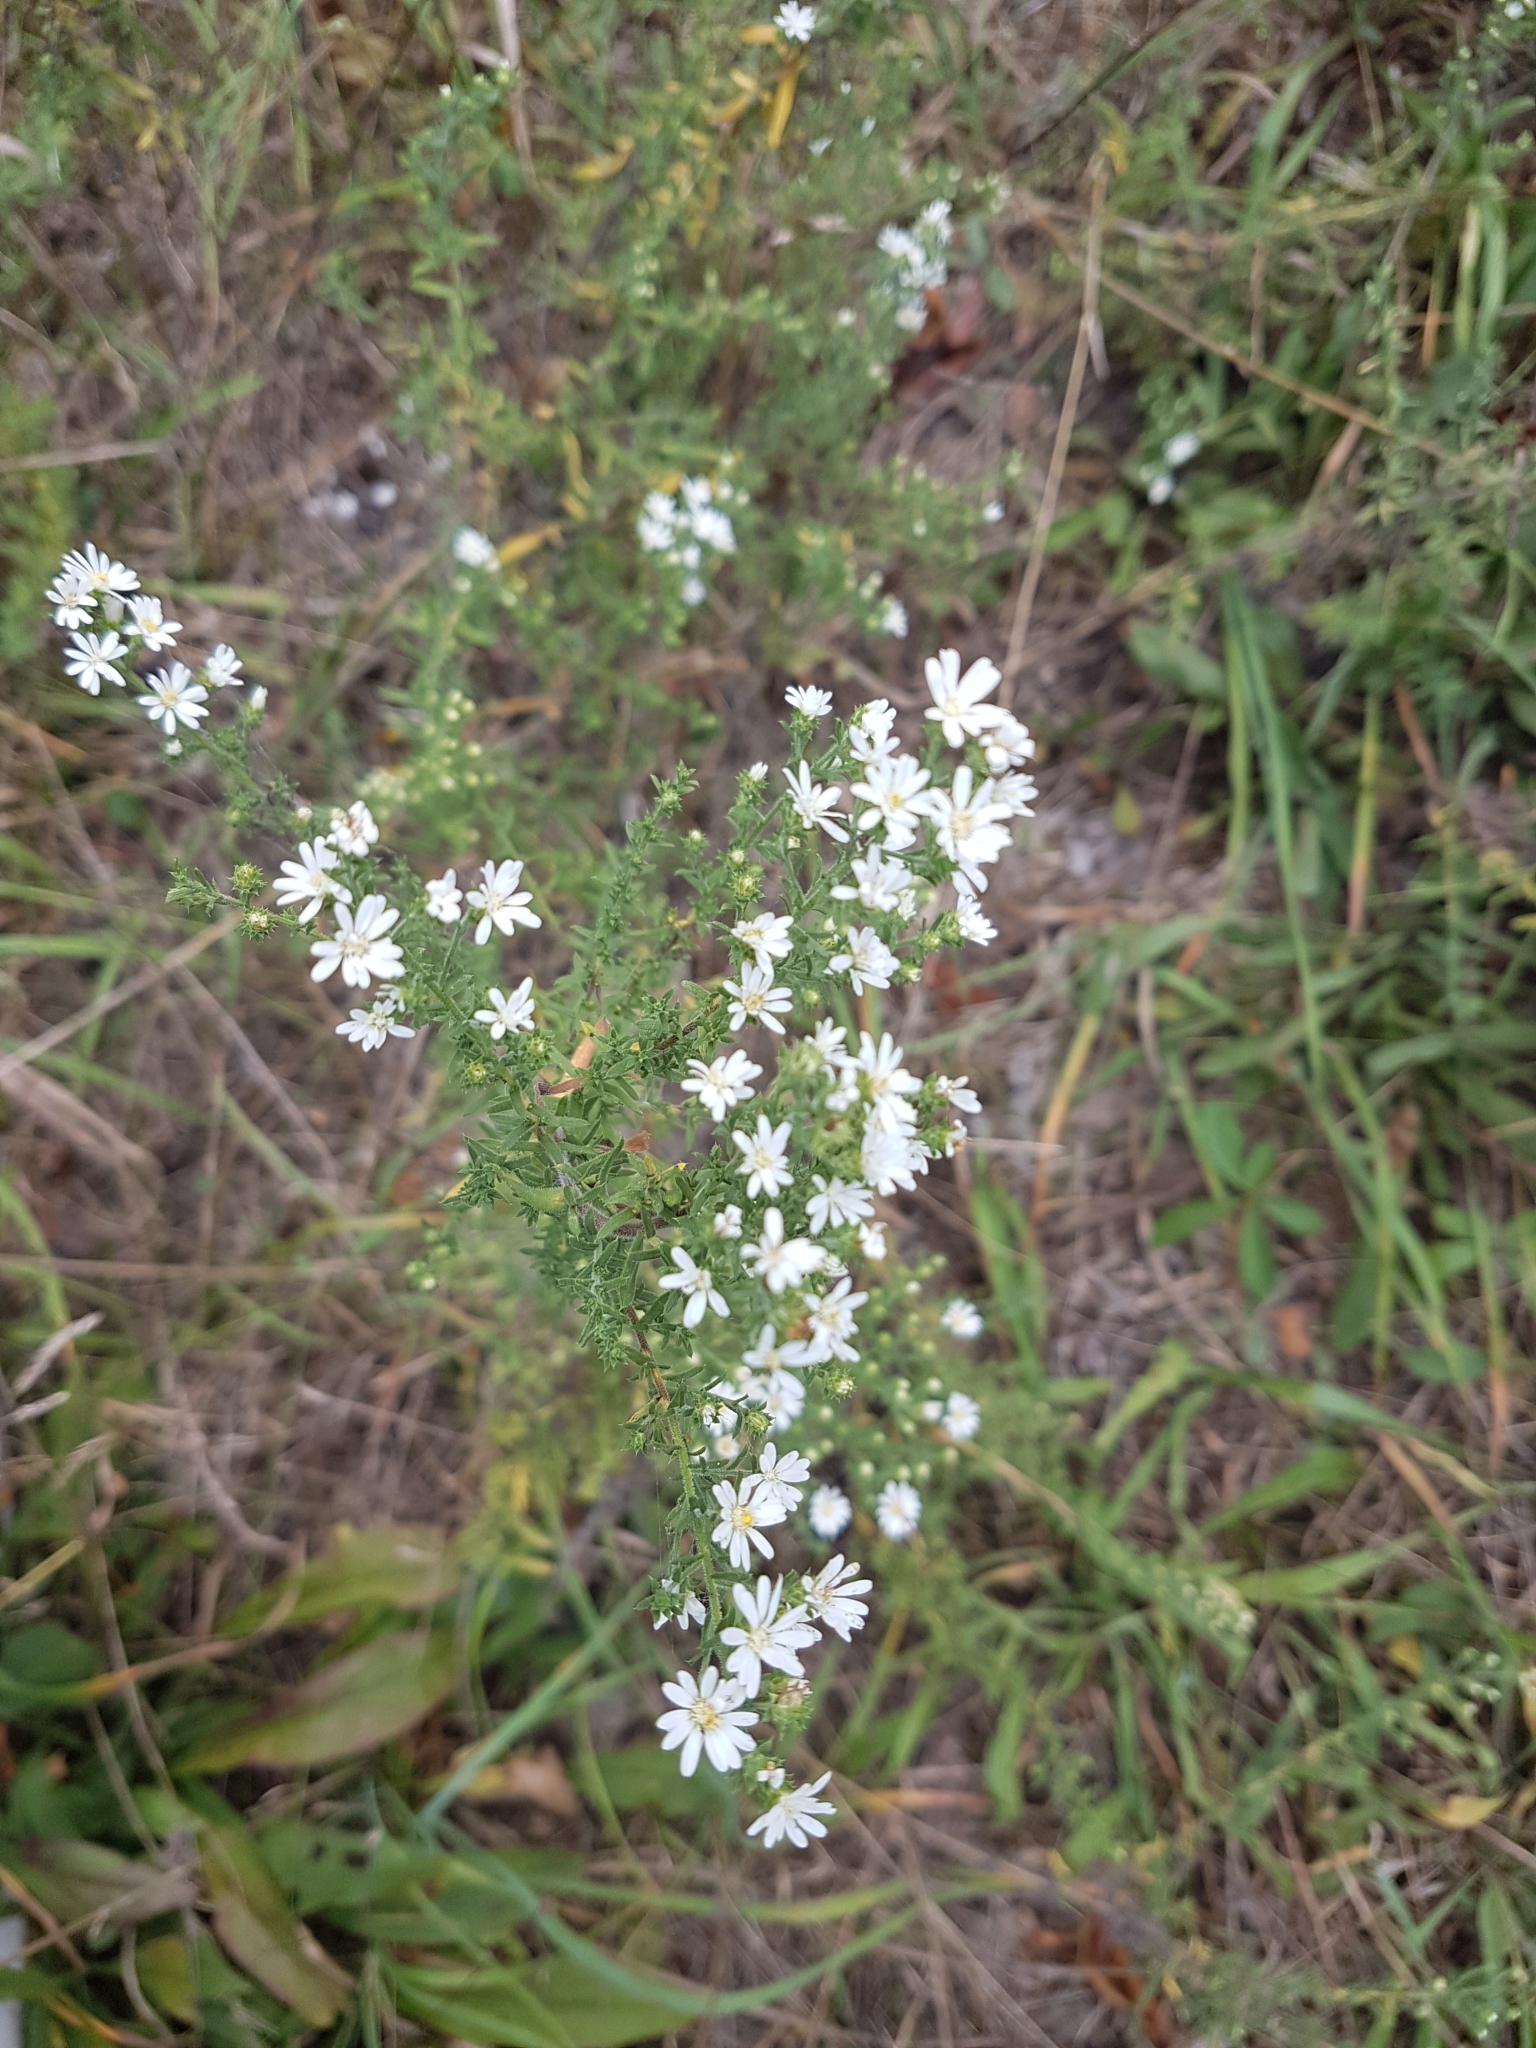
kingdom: Plantae
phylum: Tracheophyta
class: Magnoliopsida
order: Asterales
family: Asteraceae
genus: Symphyotrichum
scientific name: Symphyotrichum ericoides
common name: Heath aster
